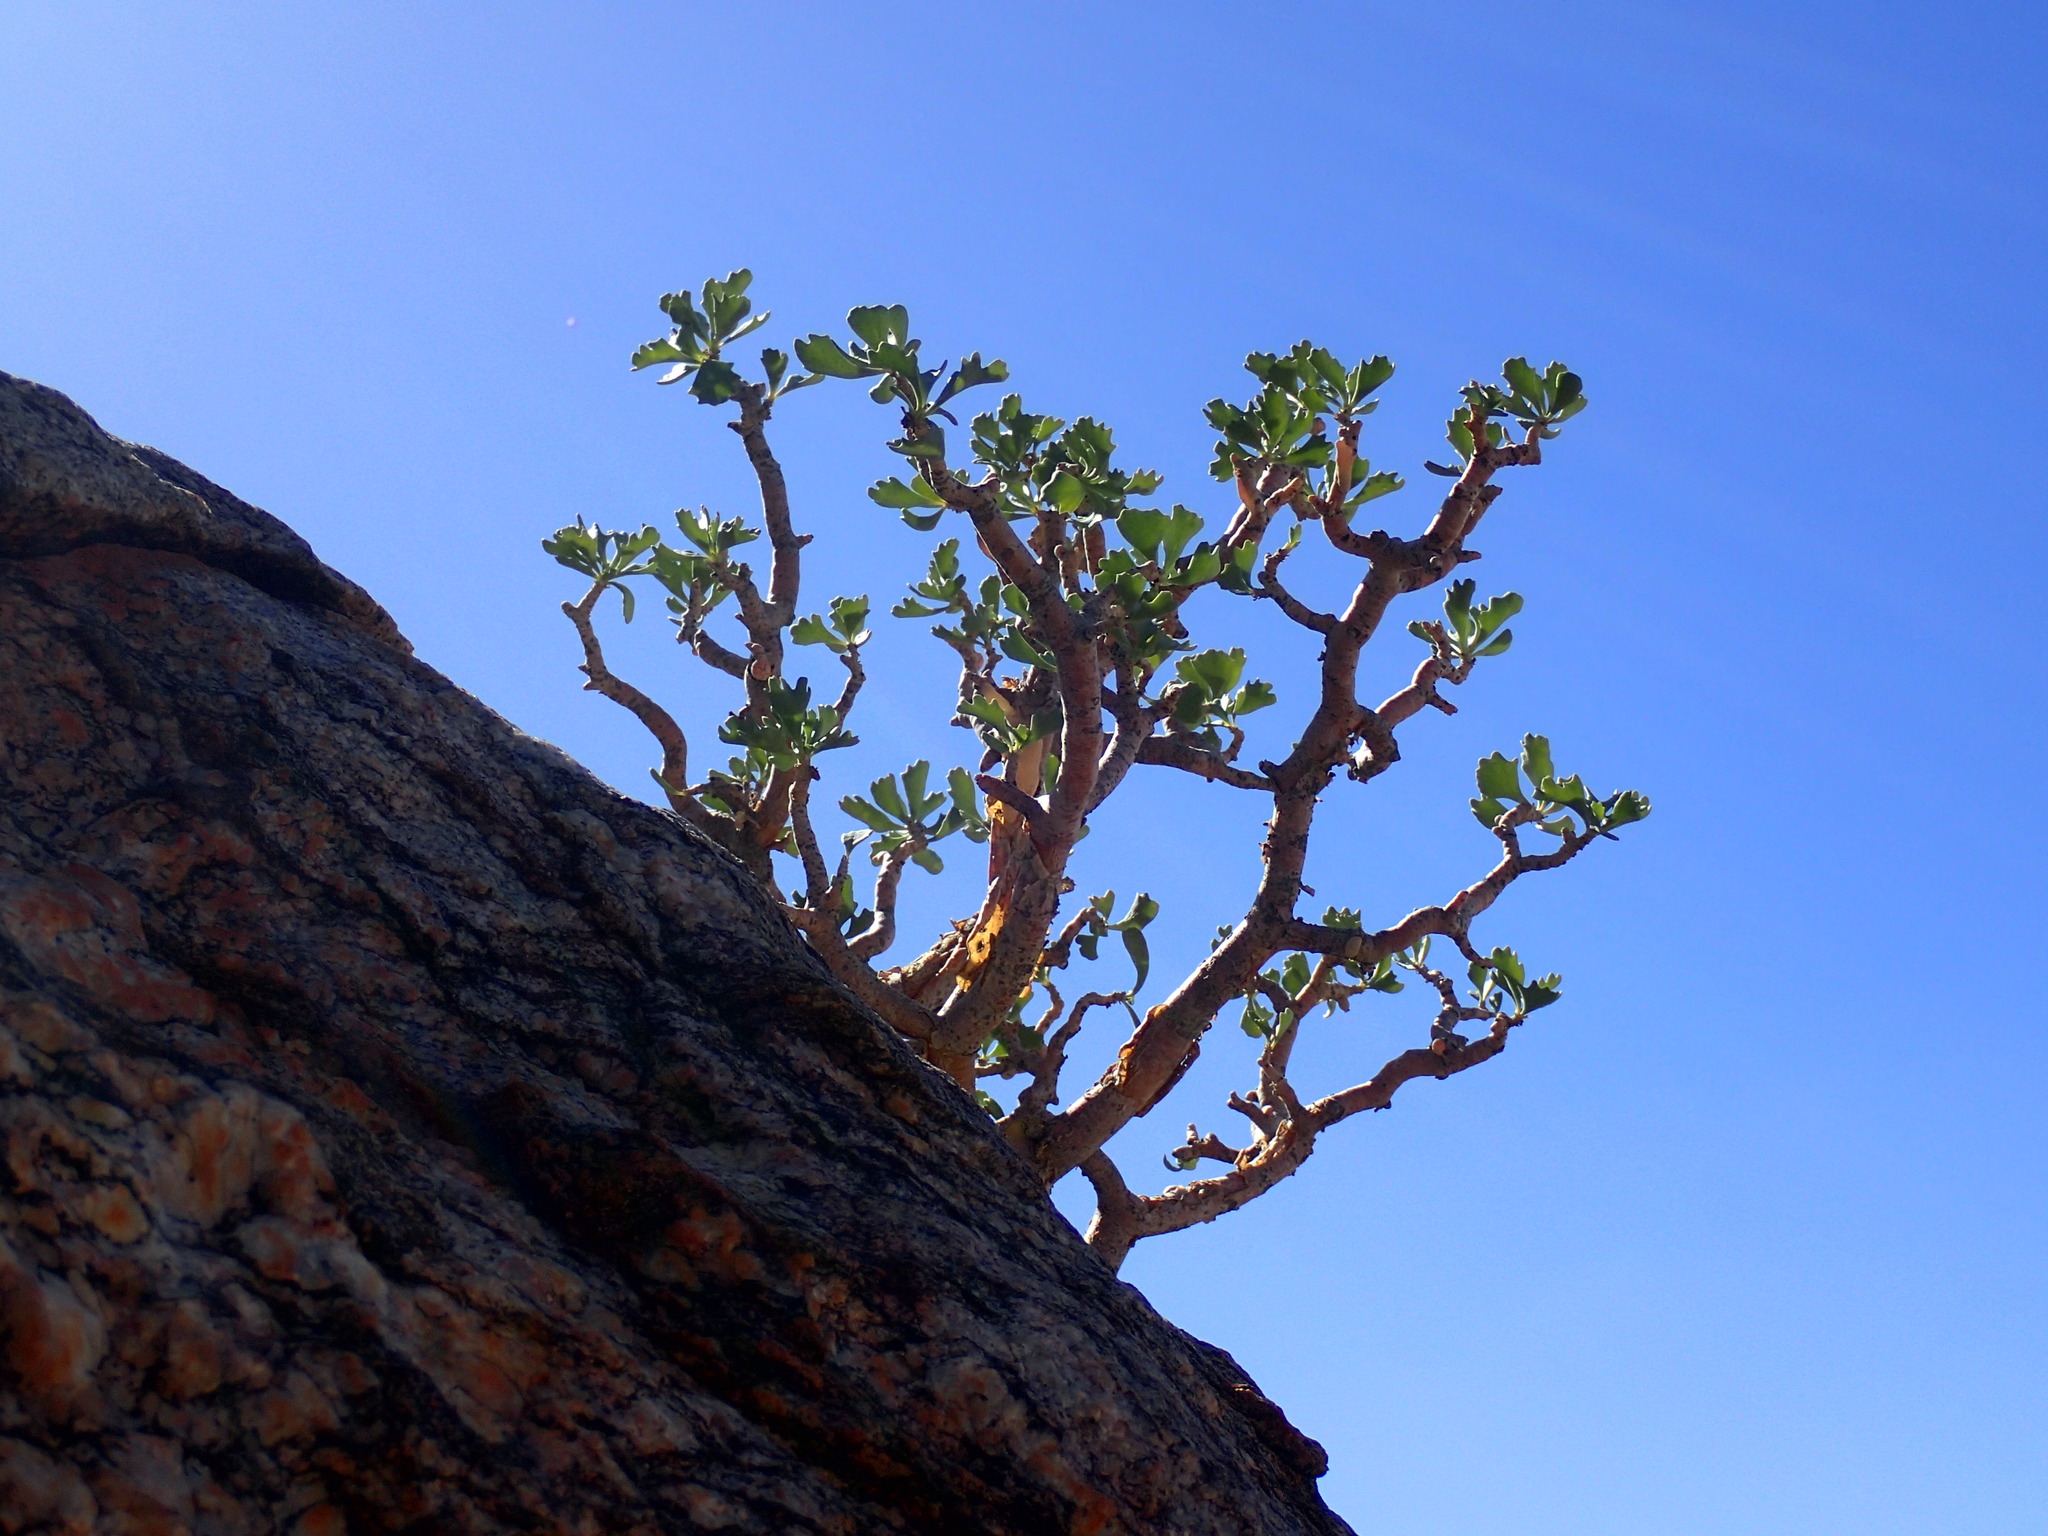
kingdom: Plantae
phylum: Tracheophyta
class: Magnoliopsida
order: Asterales
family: Asteraceae
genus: Othonna
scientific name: Othonna graveolens
